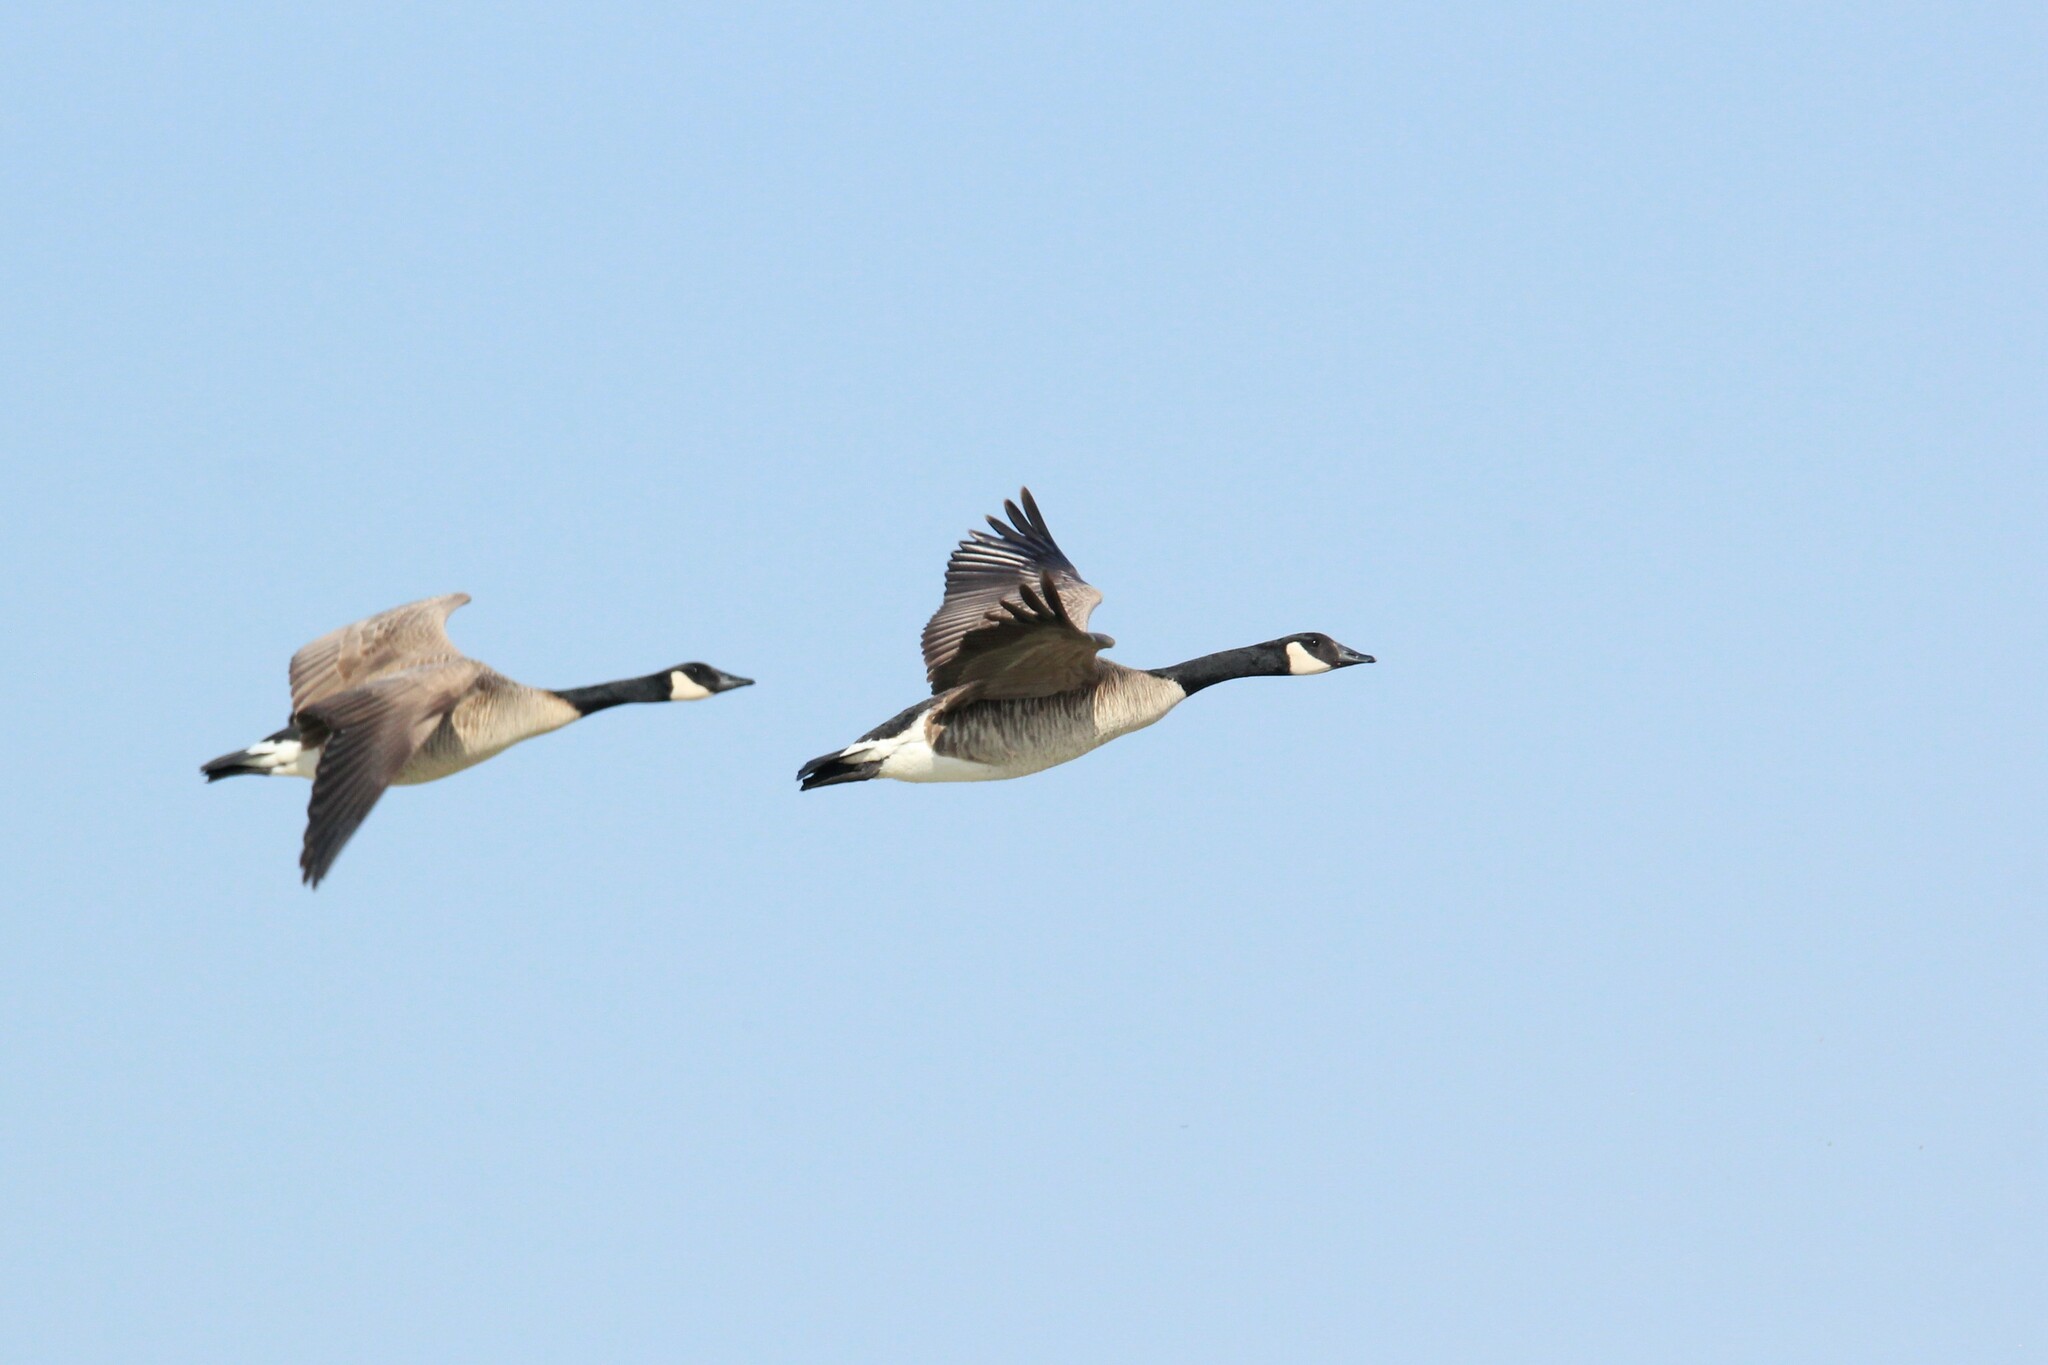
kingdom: Animalia
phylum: Chordata
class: Aves
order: Anseriformes
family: Anatidae
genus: Branta
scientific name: Branta canadensis
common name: Canada goose
